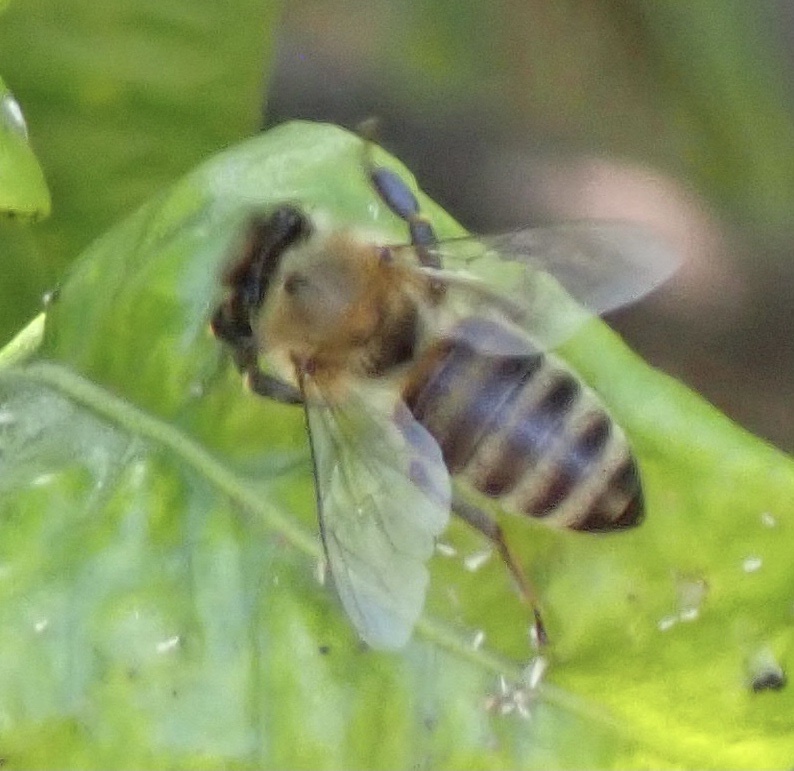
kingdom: Animalia
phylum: Arthropoda
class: Insecta
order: Hymenoptera
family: Apidae
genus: Apis
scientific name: Apis mellifera
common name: Honey bee
